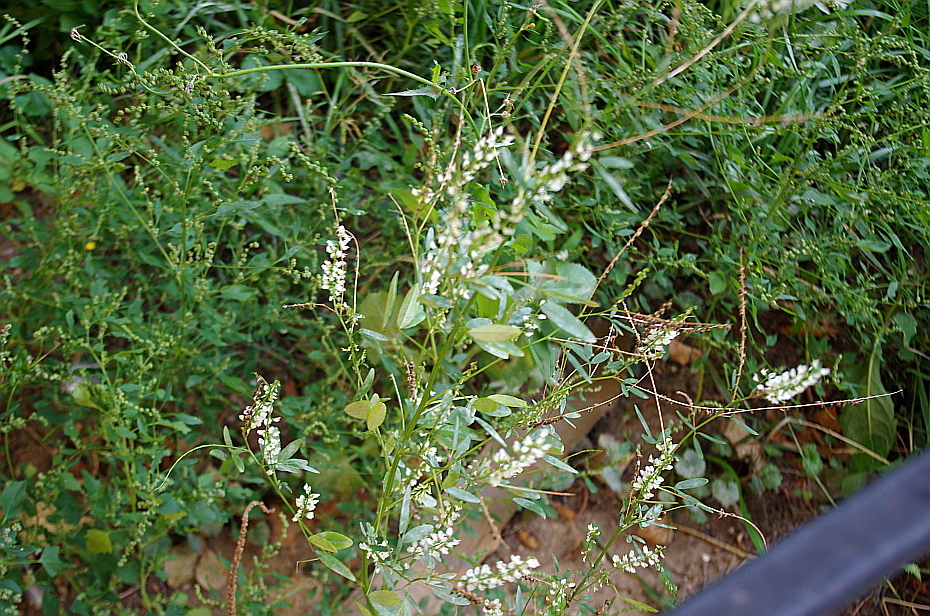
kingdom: Plantae
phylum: Tracheophyta
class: Magnoliopsida
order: Fabales
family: Fabaceae
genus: Melilotus
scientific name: Melilotus albus
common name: White melilot
